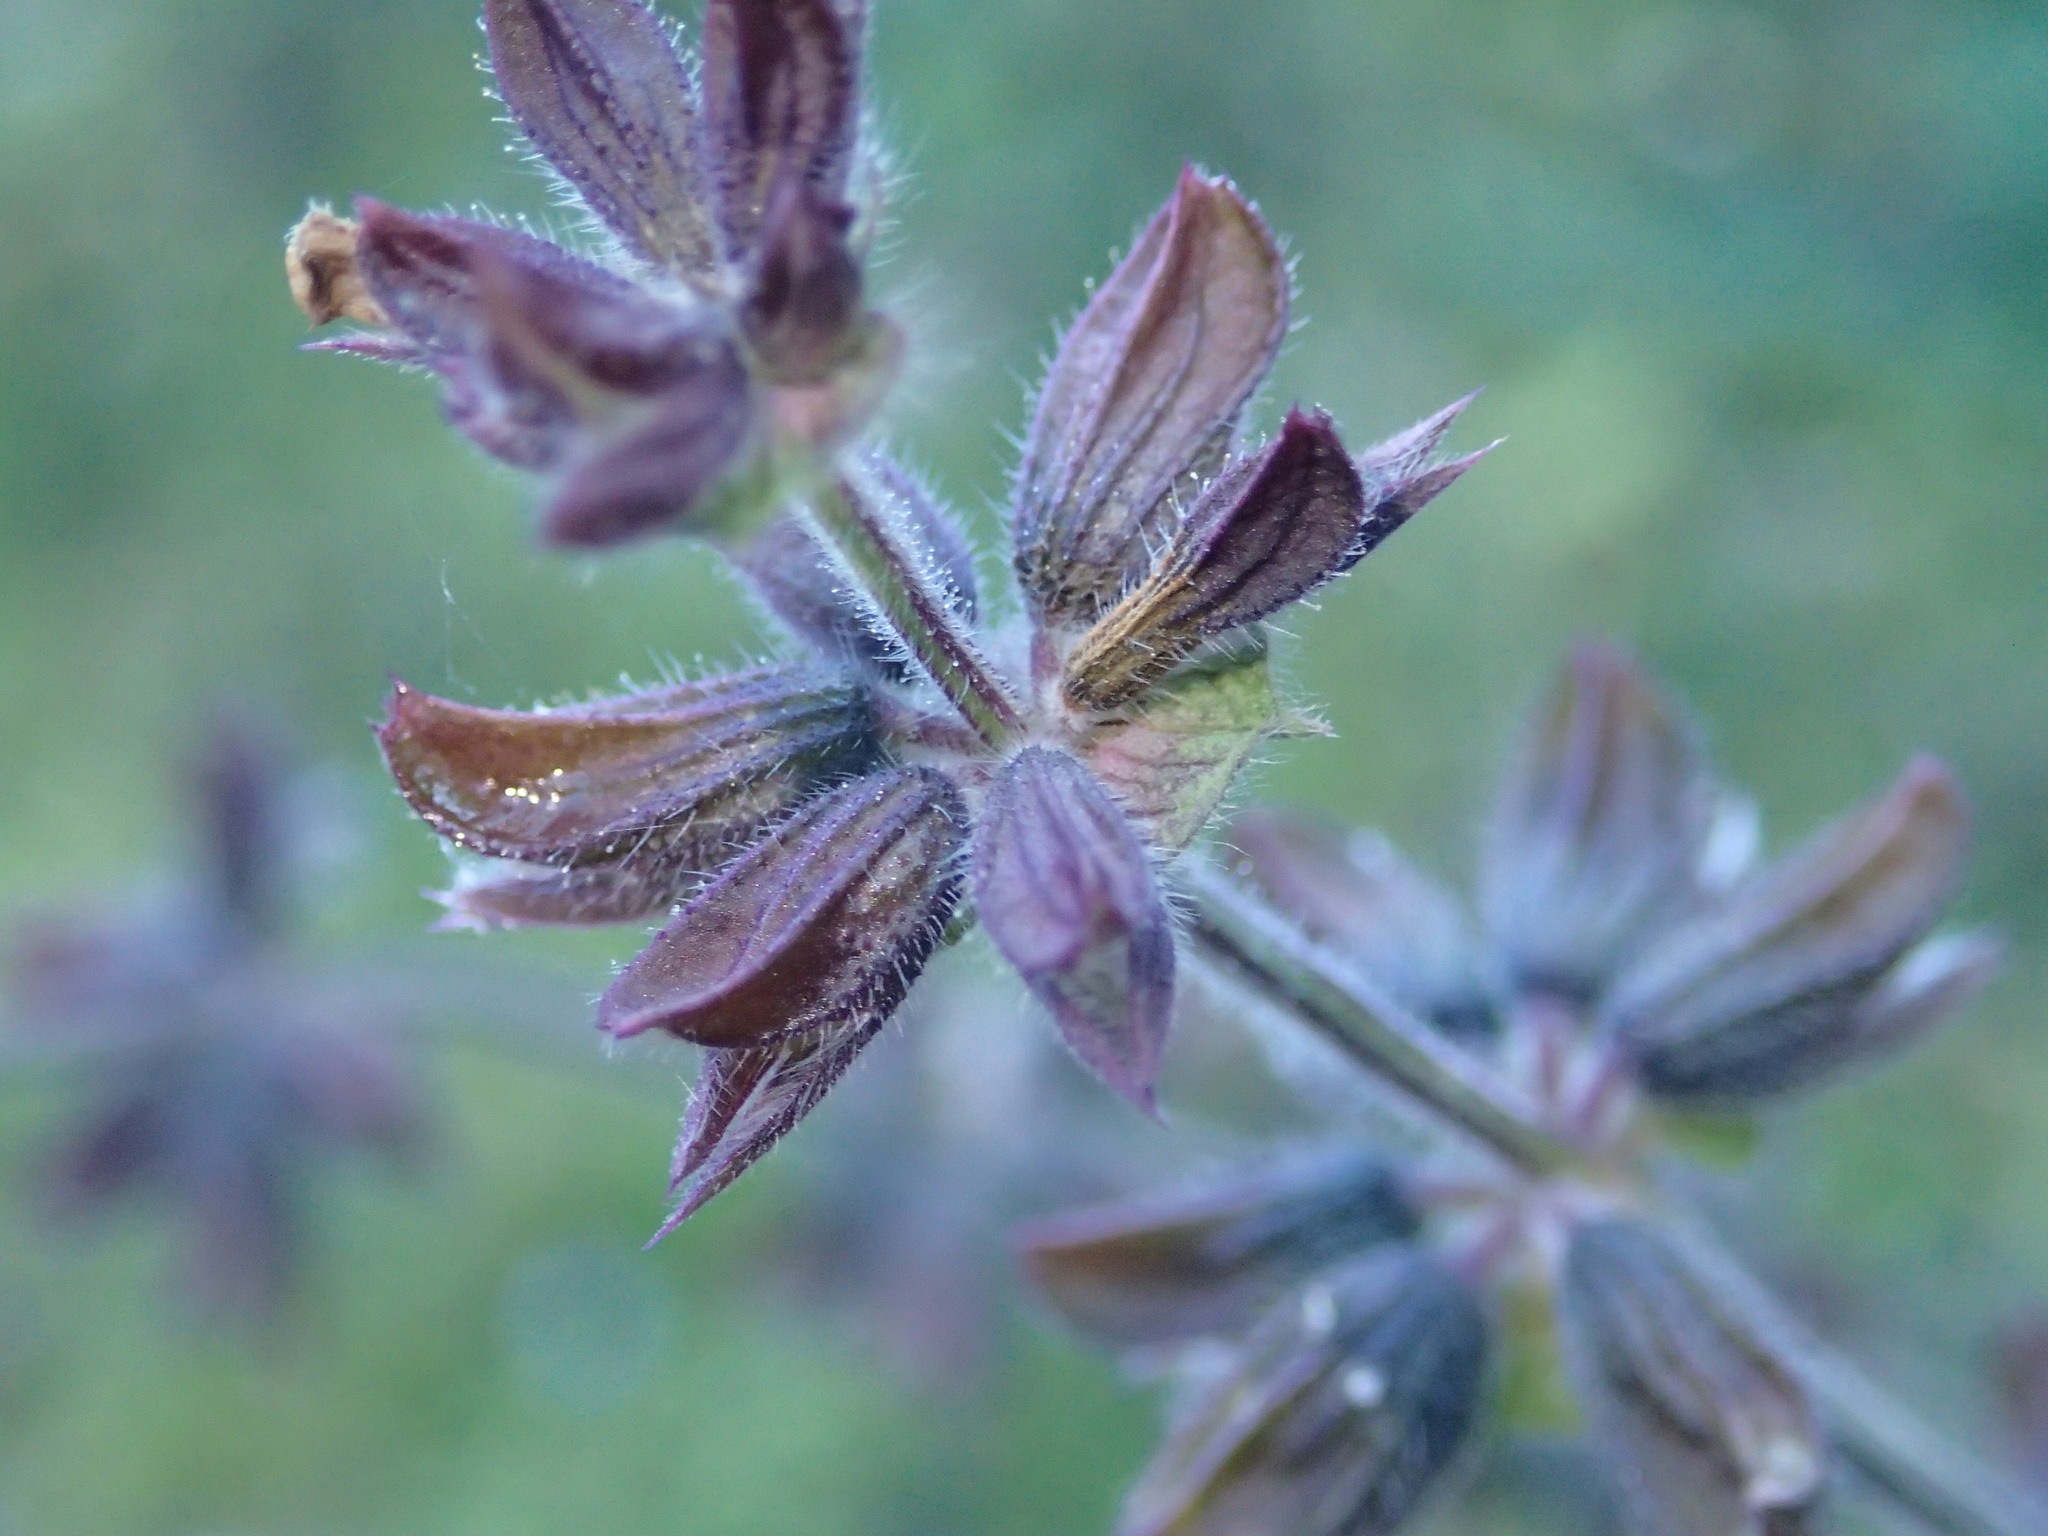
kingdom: Plantae
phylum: Tracheophyta
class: Magnoliopsida
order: Lamiales
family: Lamiaceae
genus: Salvia
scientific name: Salvia verbenaca
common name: Wild clary
